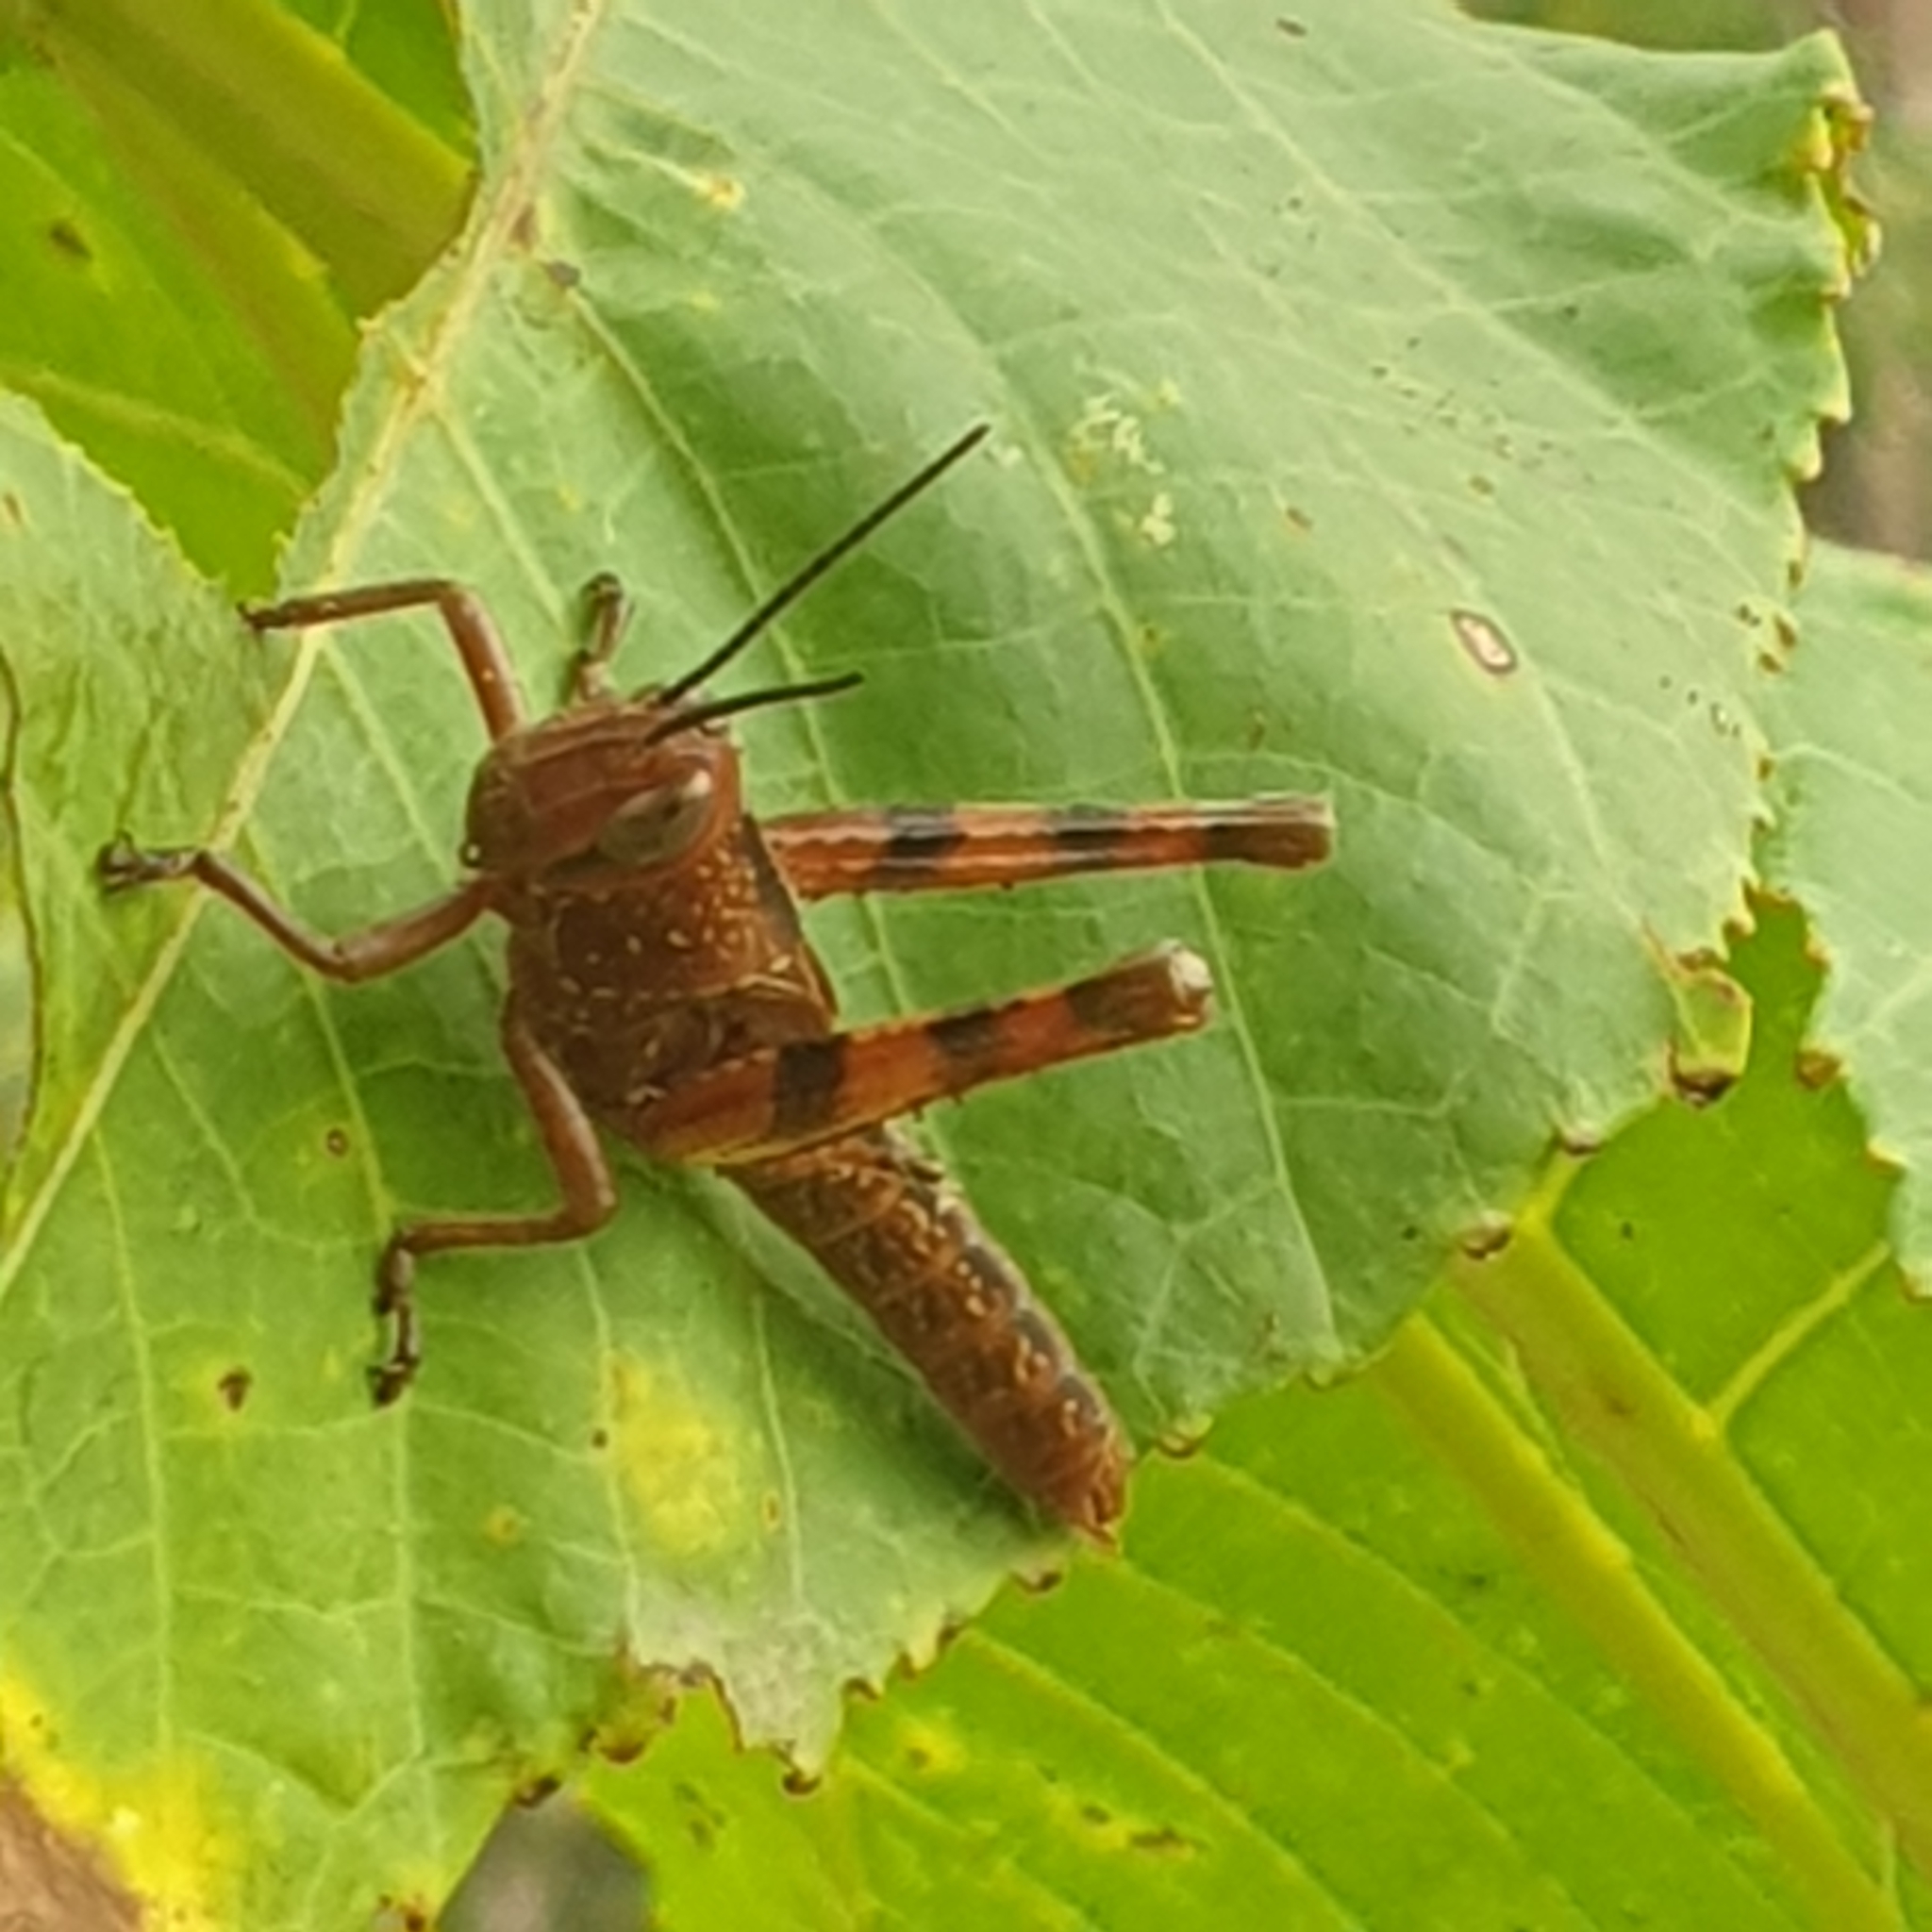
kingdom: Animalia
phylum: Arthropoda
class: Insecta
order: Orthoptera
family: Acrididae
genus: Valanga
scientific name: Valanga irregularis
